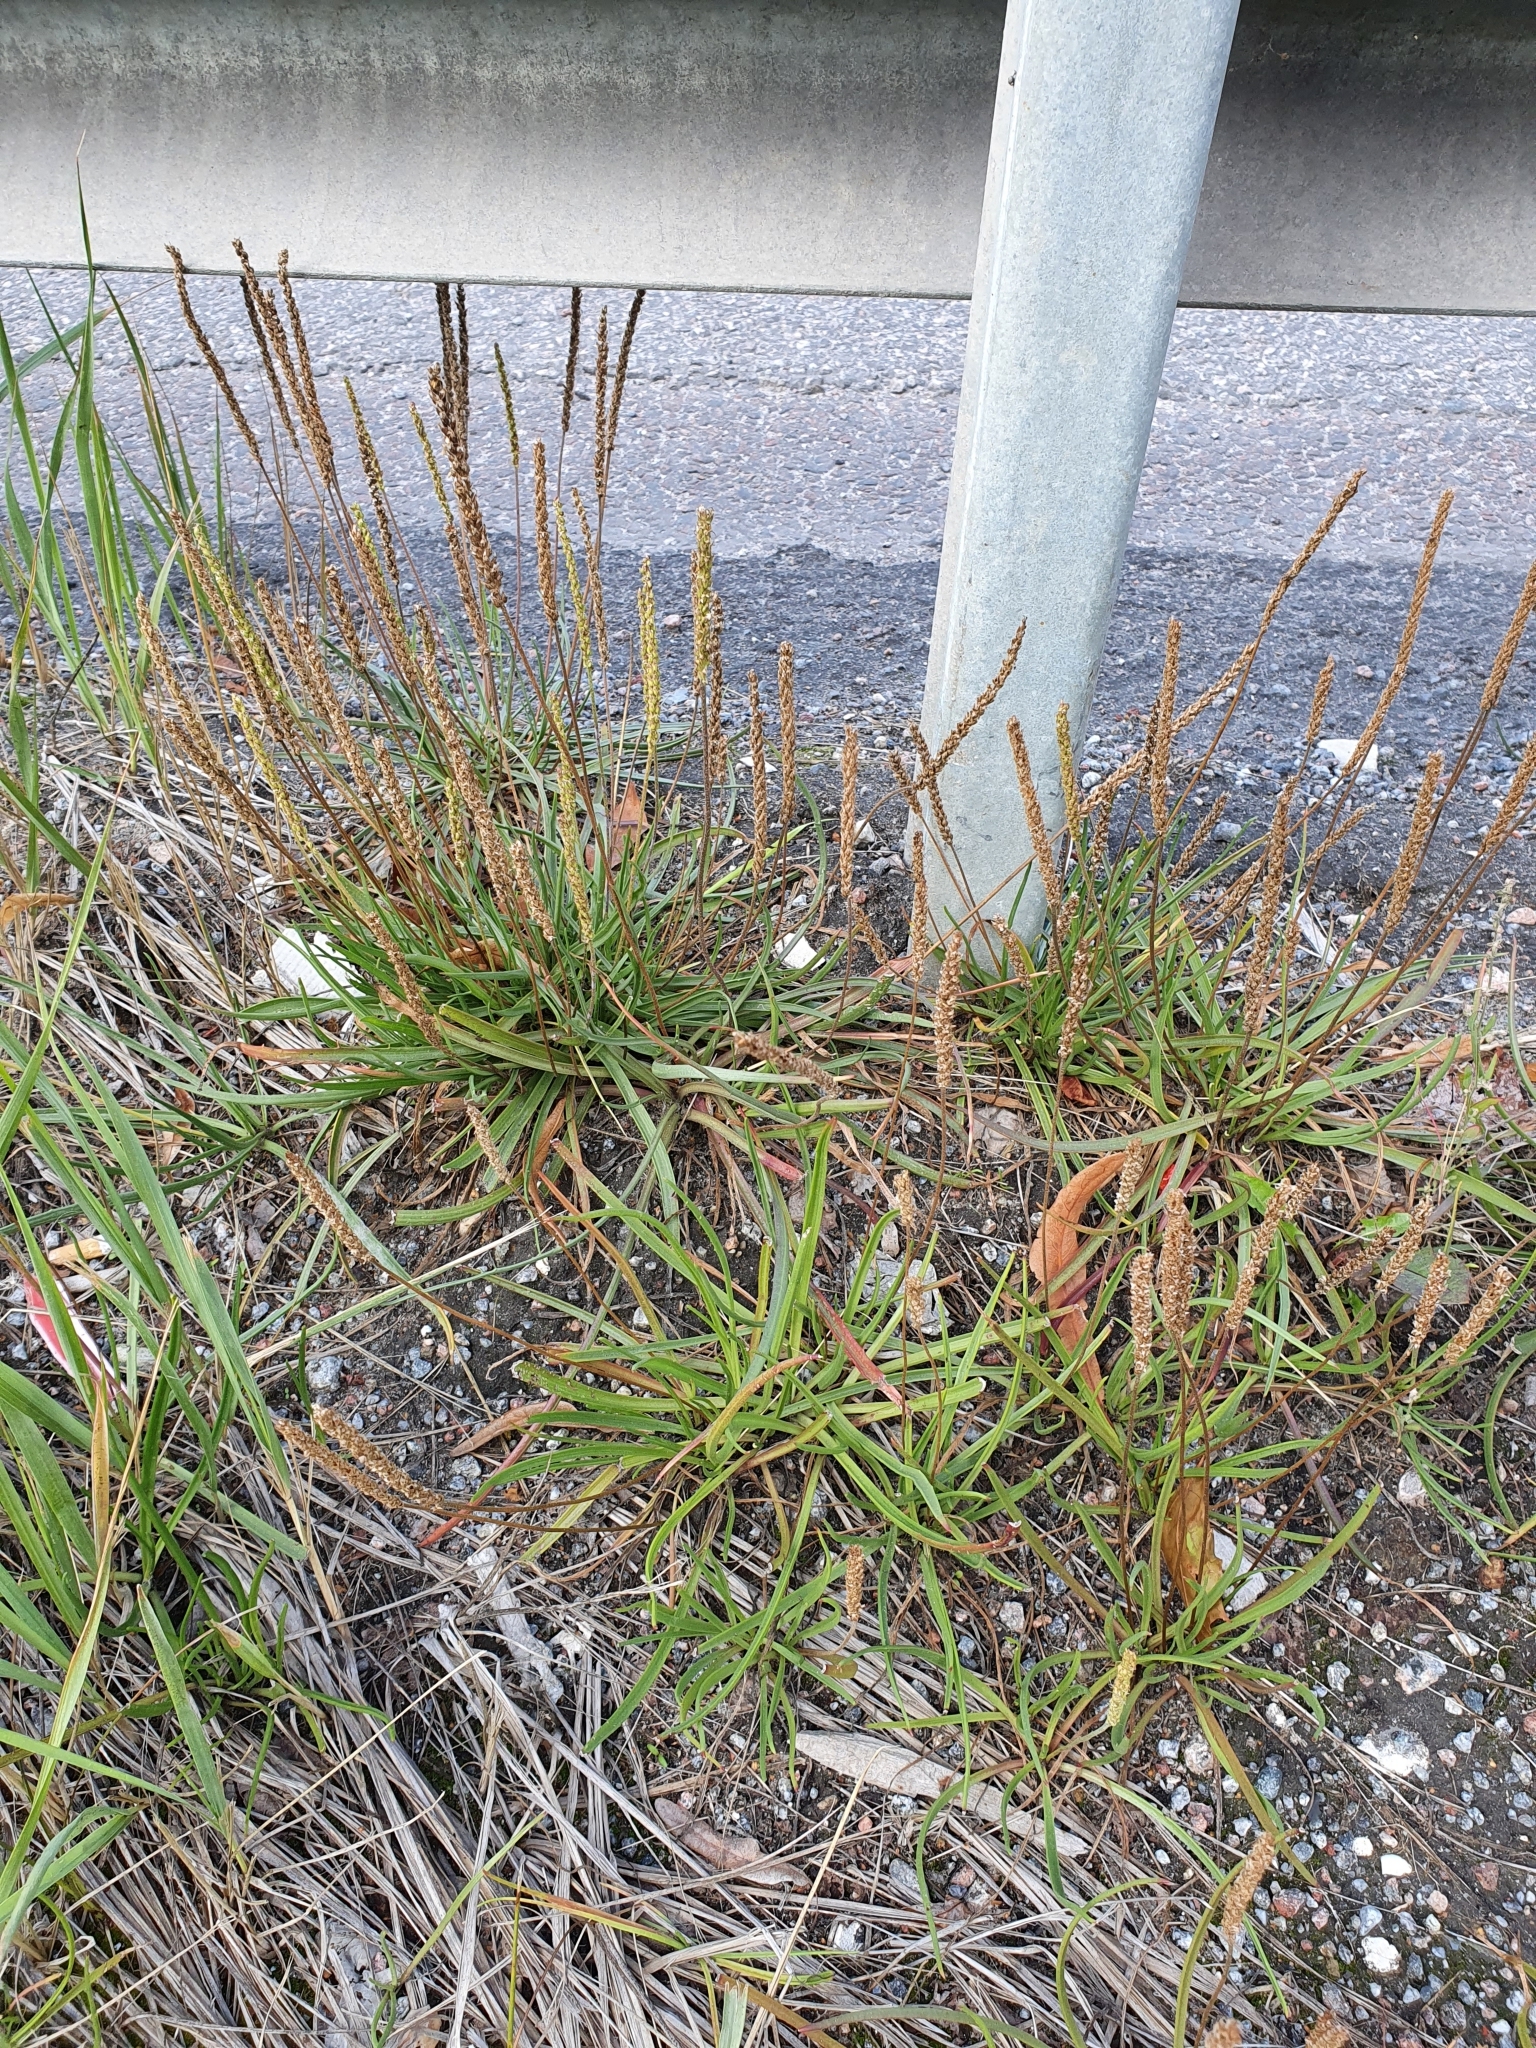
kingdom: Plantae
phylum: Tracheophyta
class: Magnoliopsida
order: Lamiales
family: Plantaginaceae
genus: Plantago
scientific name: Plantago maritima
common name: Sea plantain
